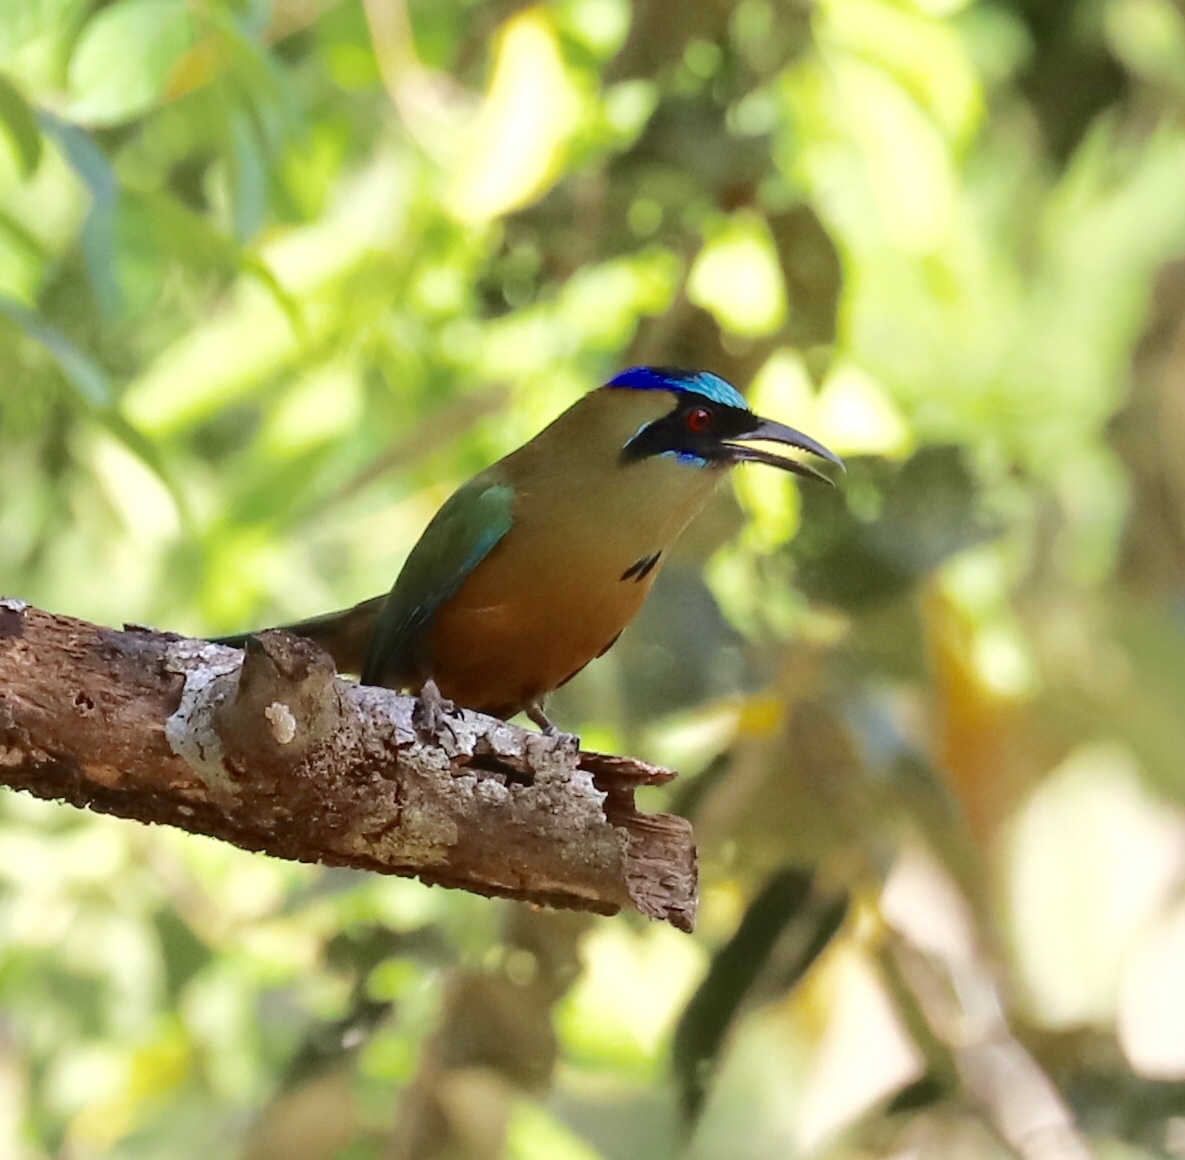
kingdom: Animalia
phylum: Chordata
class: Aves
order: Coraciiformes
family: Momotidae
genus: Momotus
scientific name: Momotus subrufescens
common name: Whooping motmot
